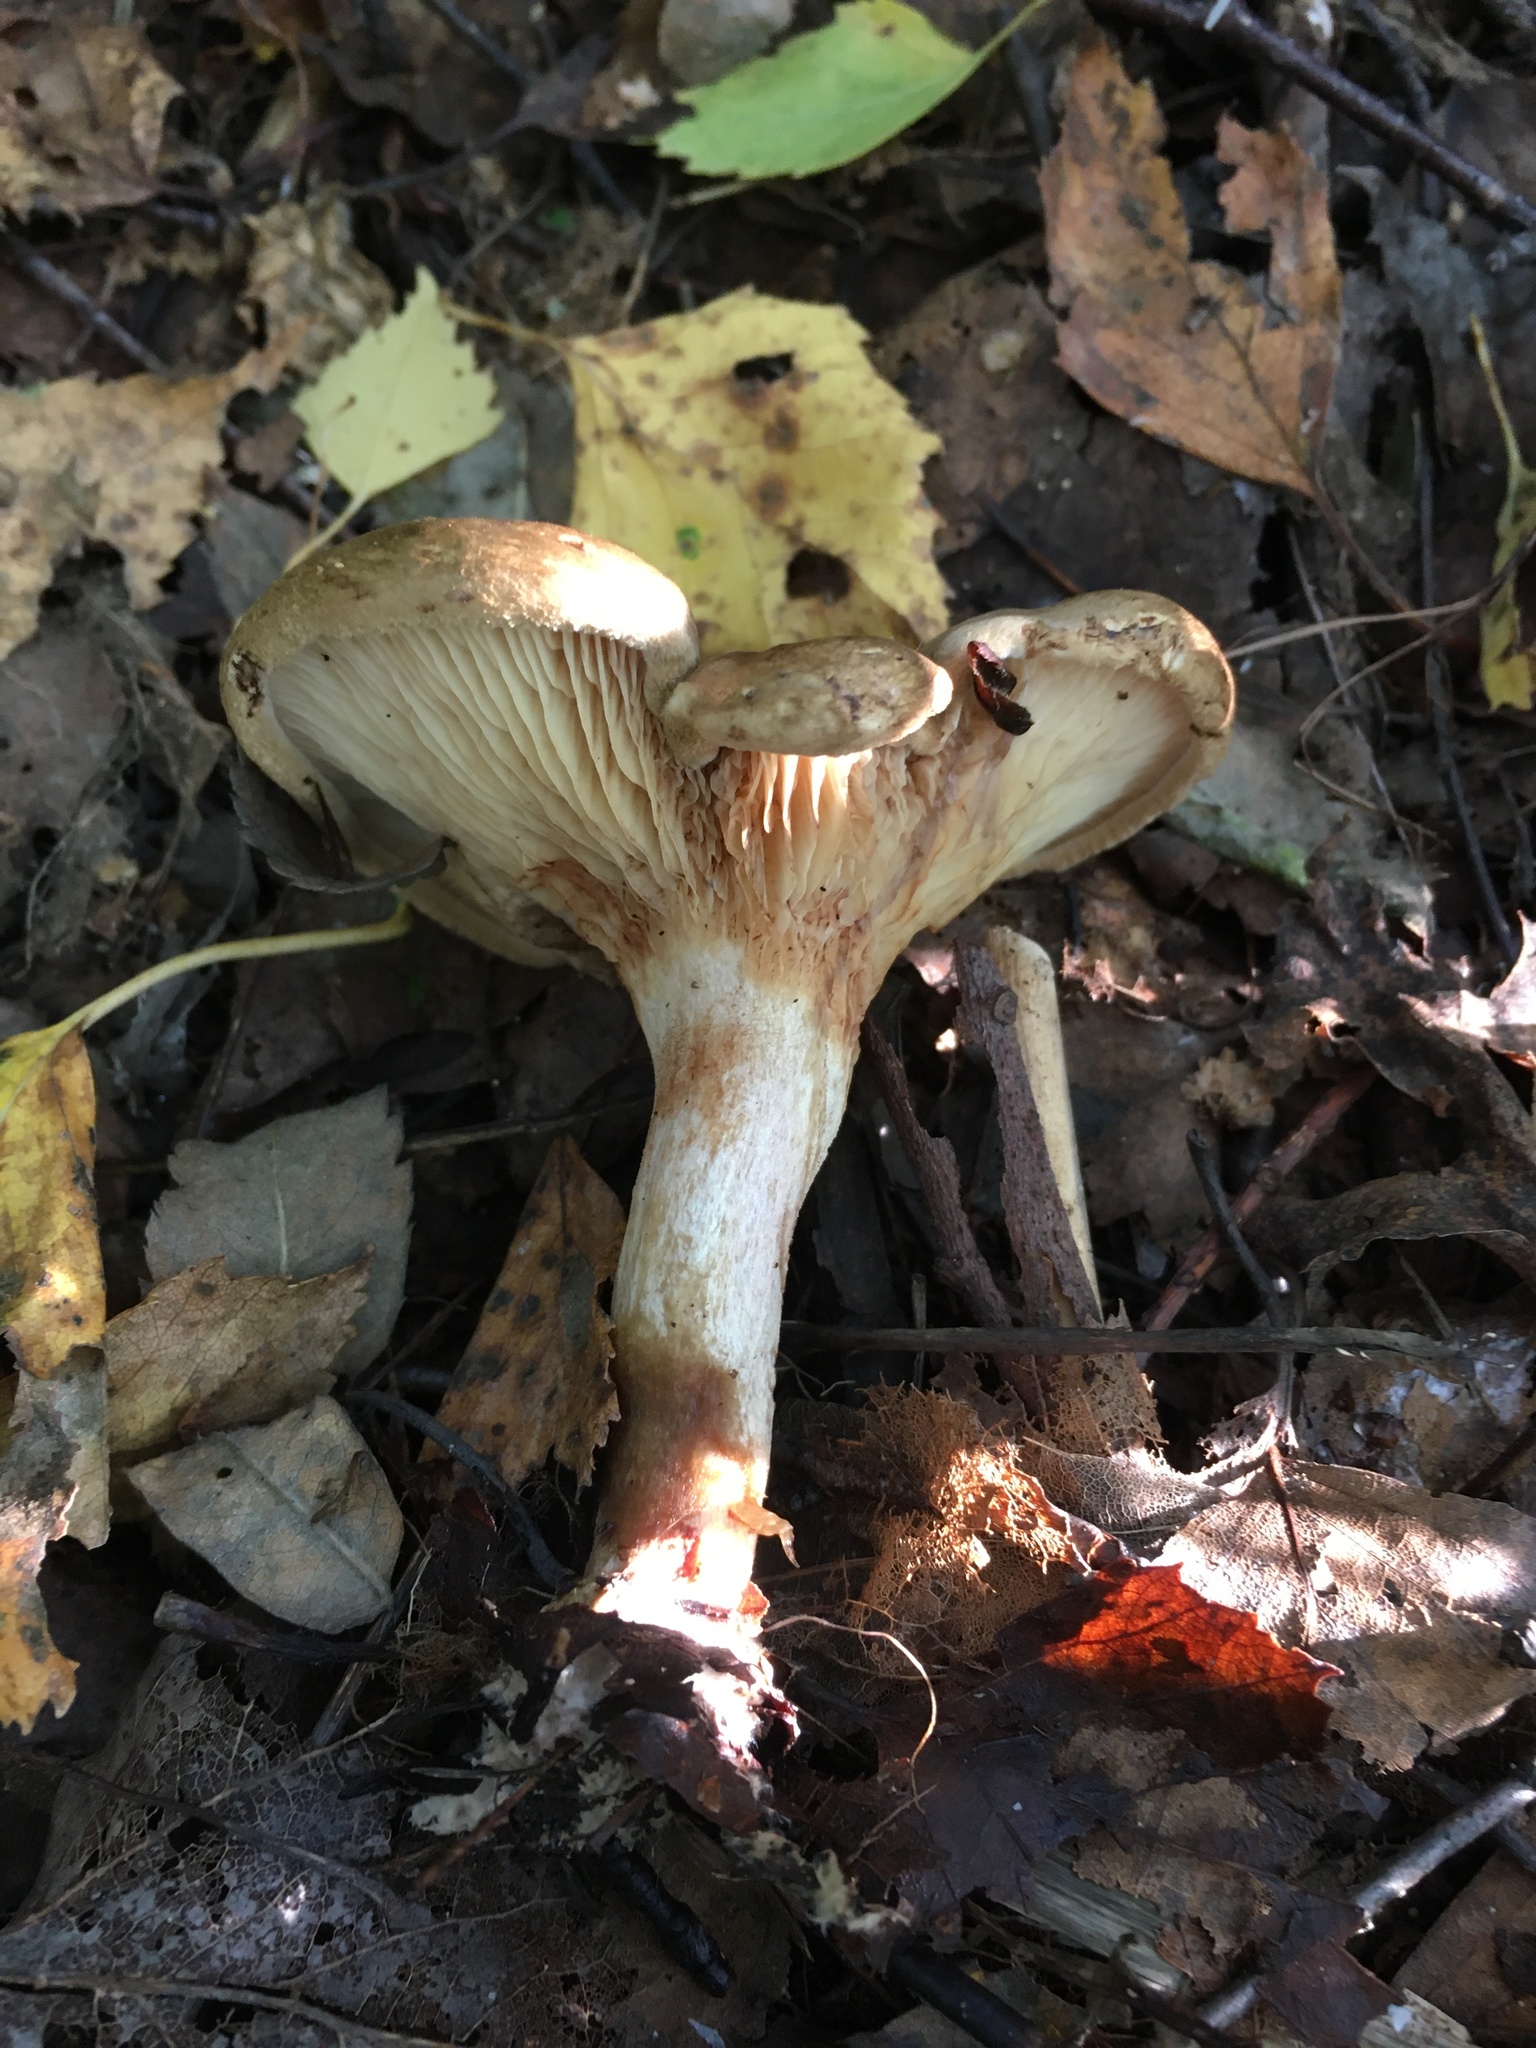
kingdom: Fungi
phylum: Basidiomycota
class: Agaricomycetes
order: Boletales
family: Paxillaceae
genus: Paxillus
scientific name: Paxillus involutus
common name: Brown roll rim
